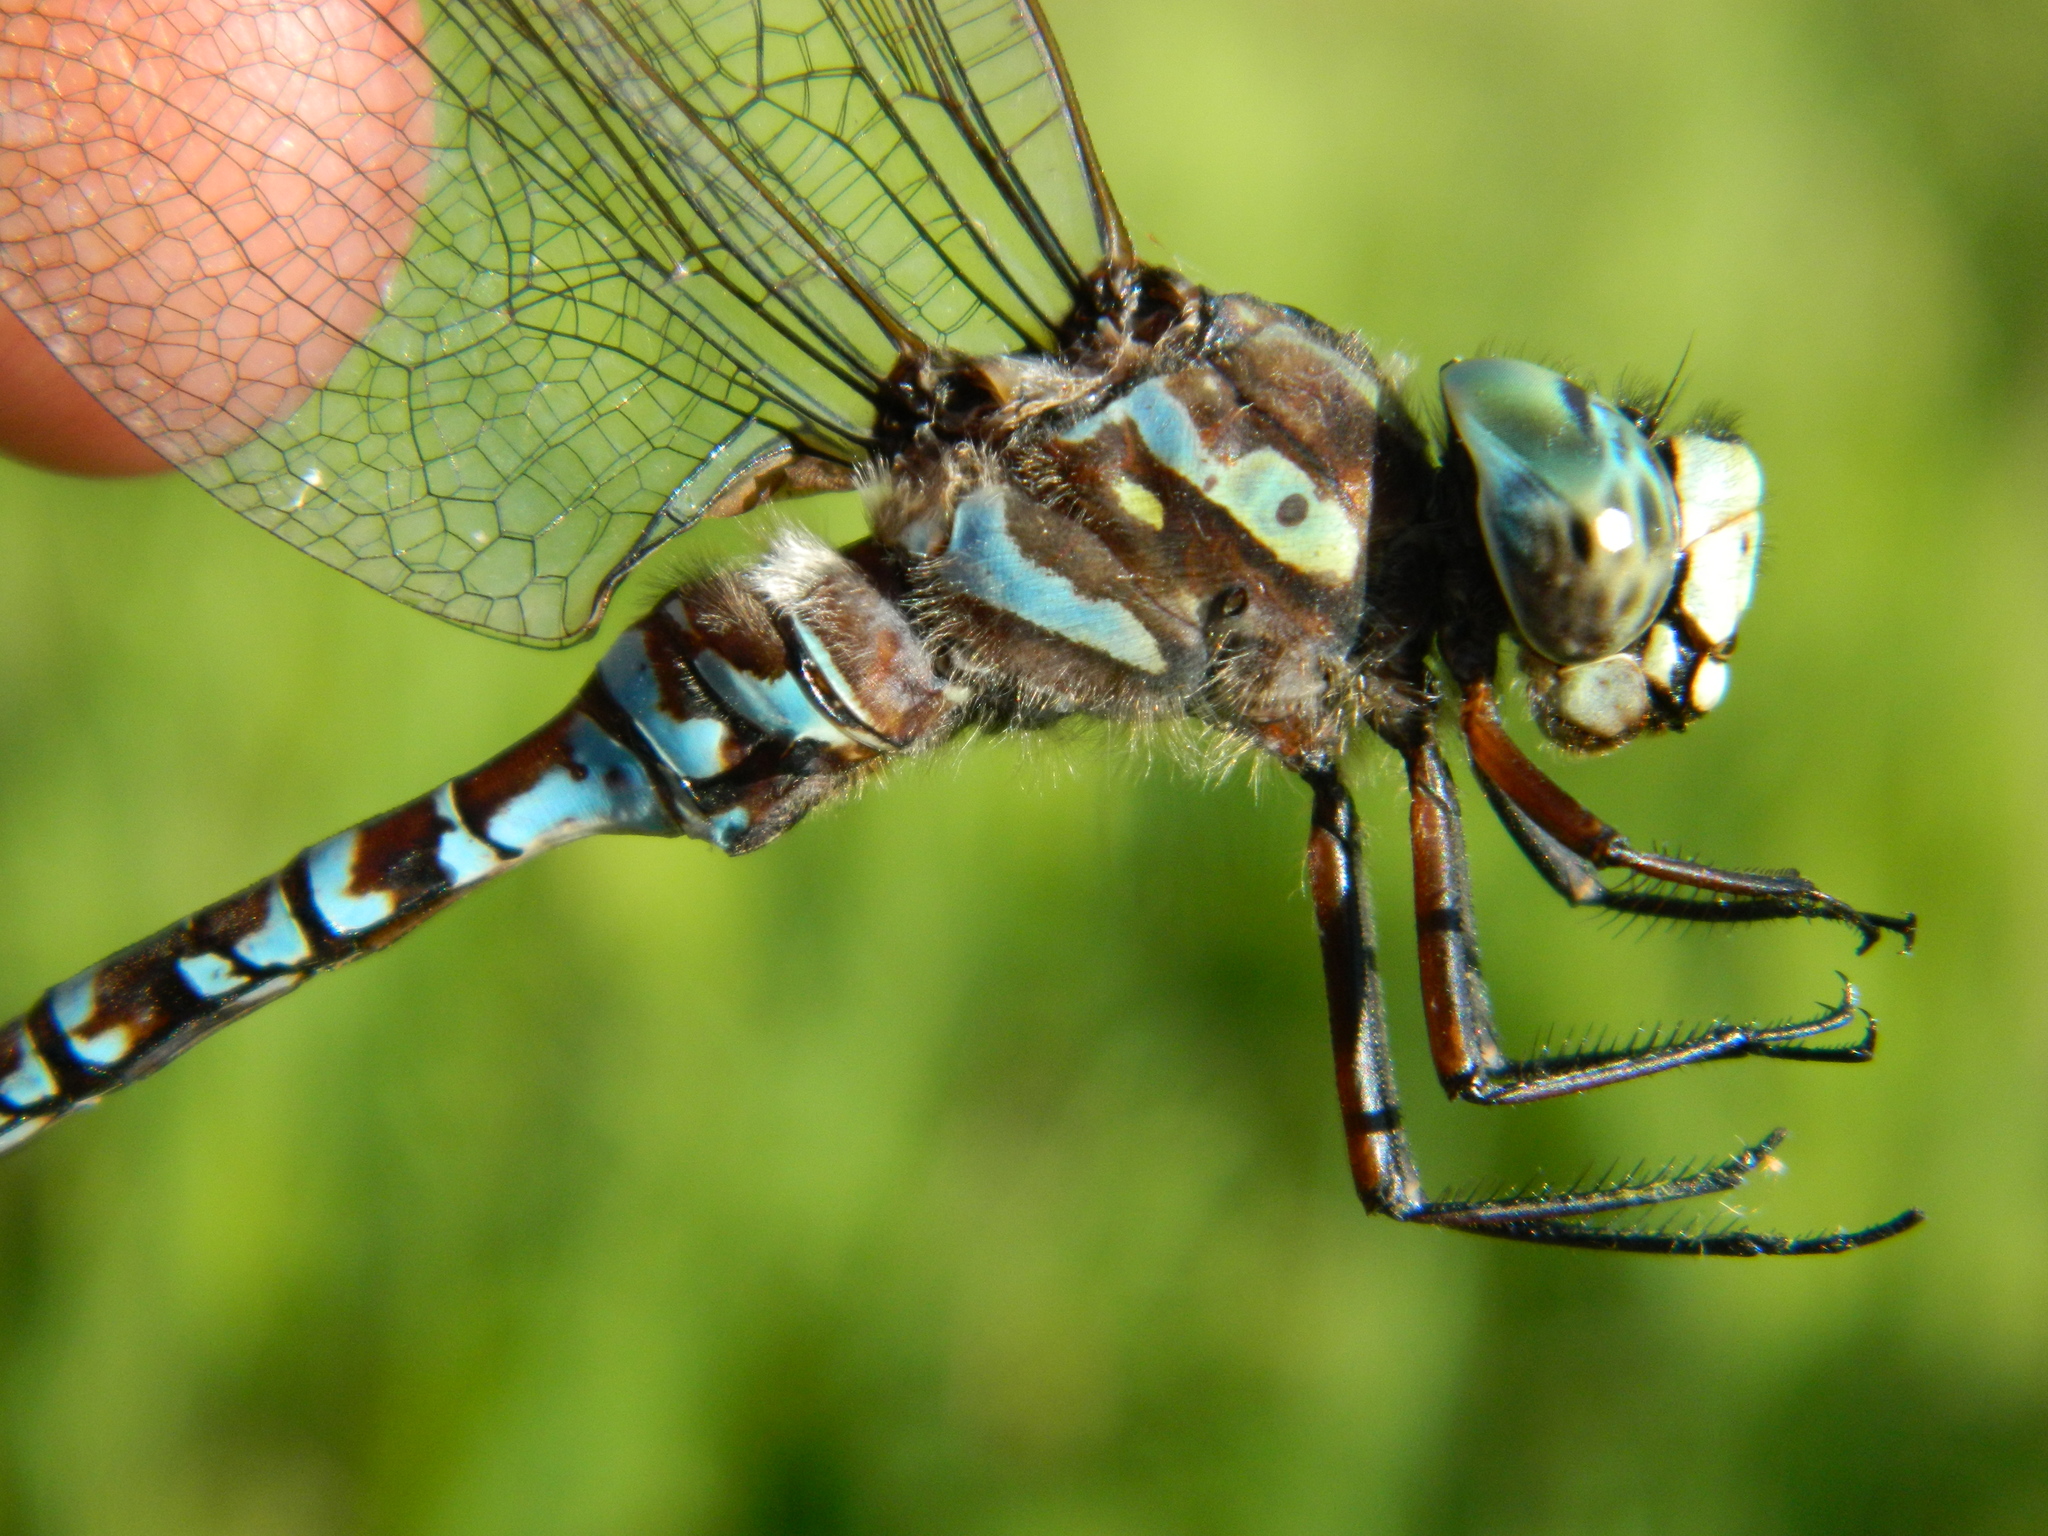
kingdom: Animalia
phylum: Arthropoda
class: Insecta
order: Odonata
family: Aeshnidae
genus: Aeshna
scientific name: Aeshna canadensis
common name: Canada darner
